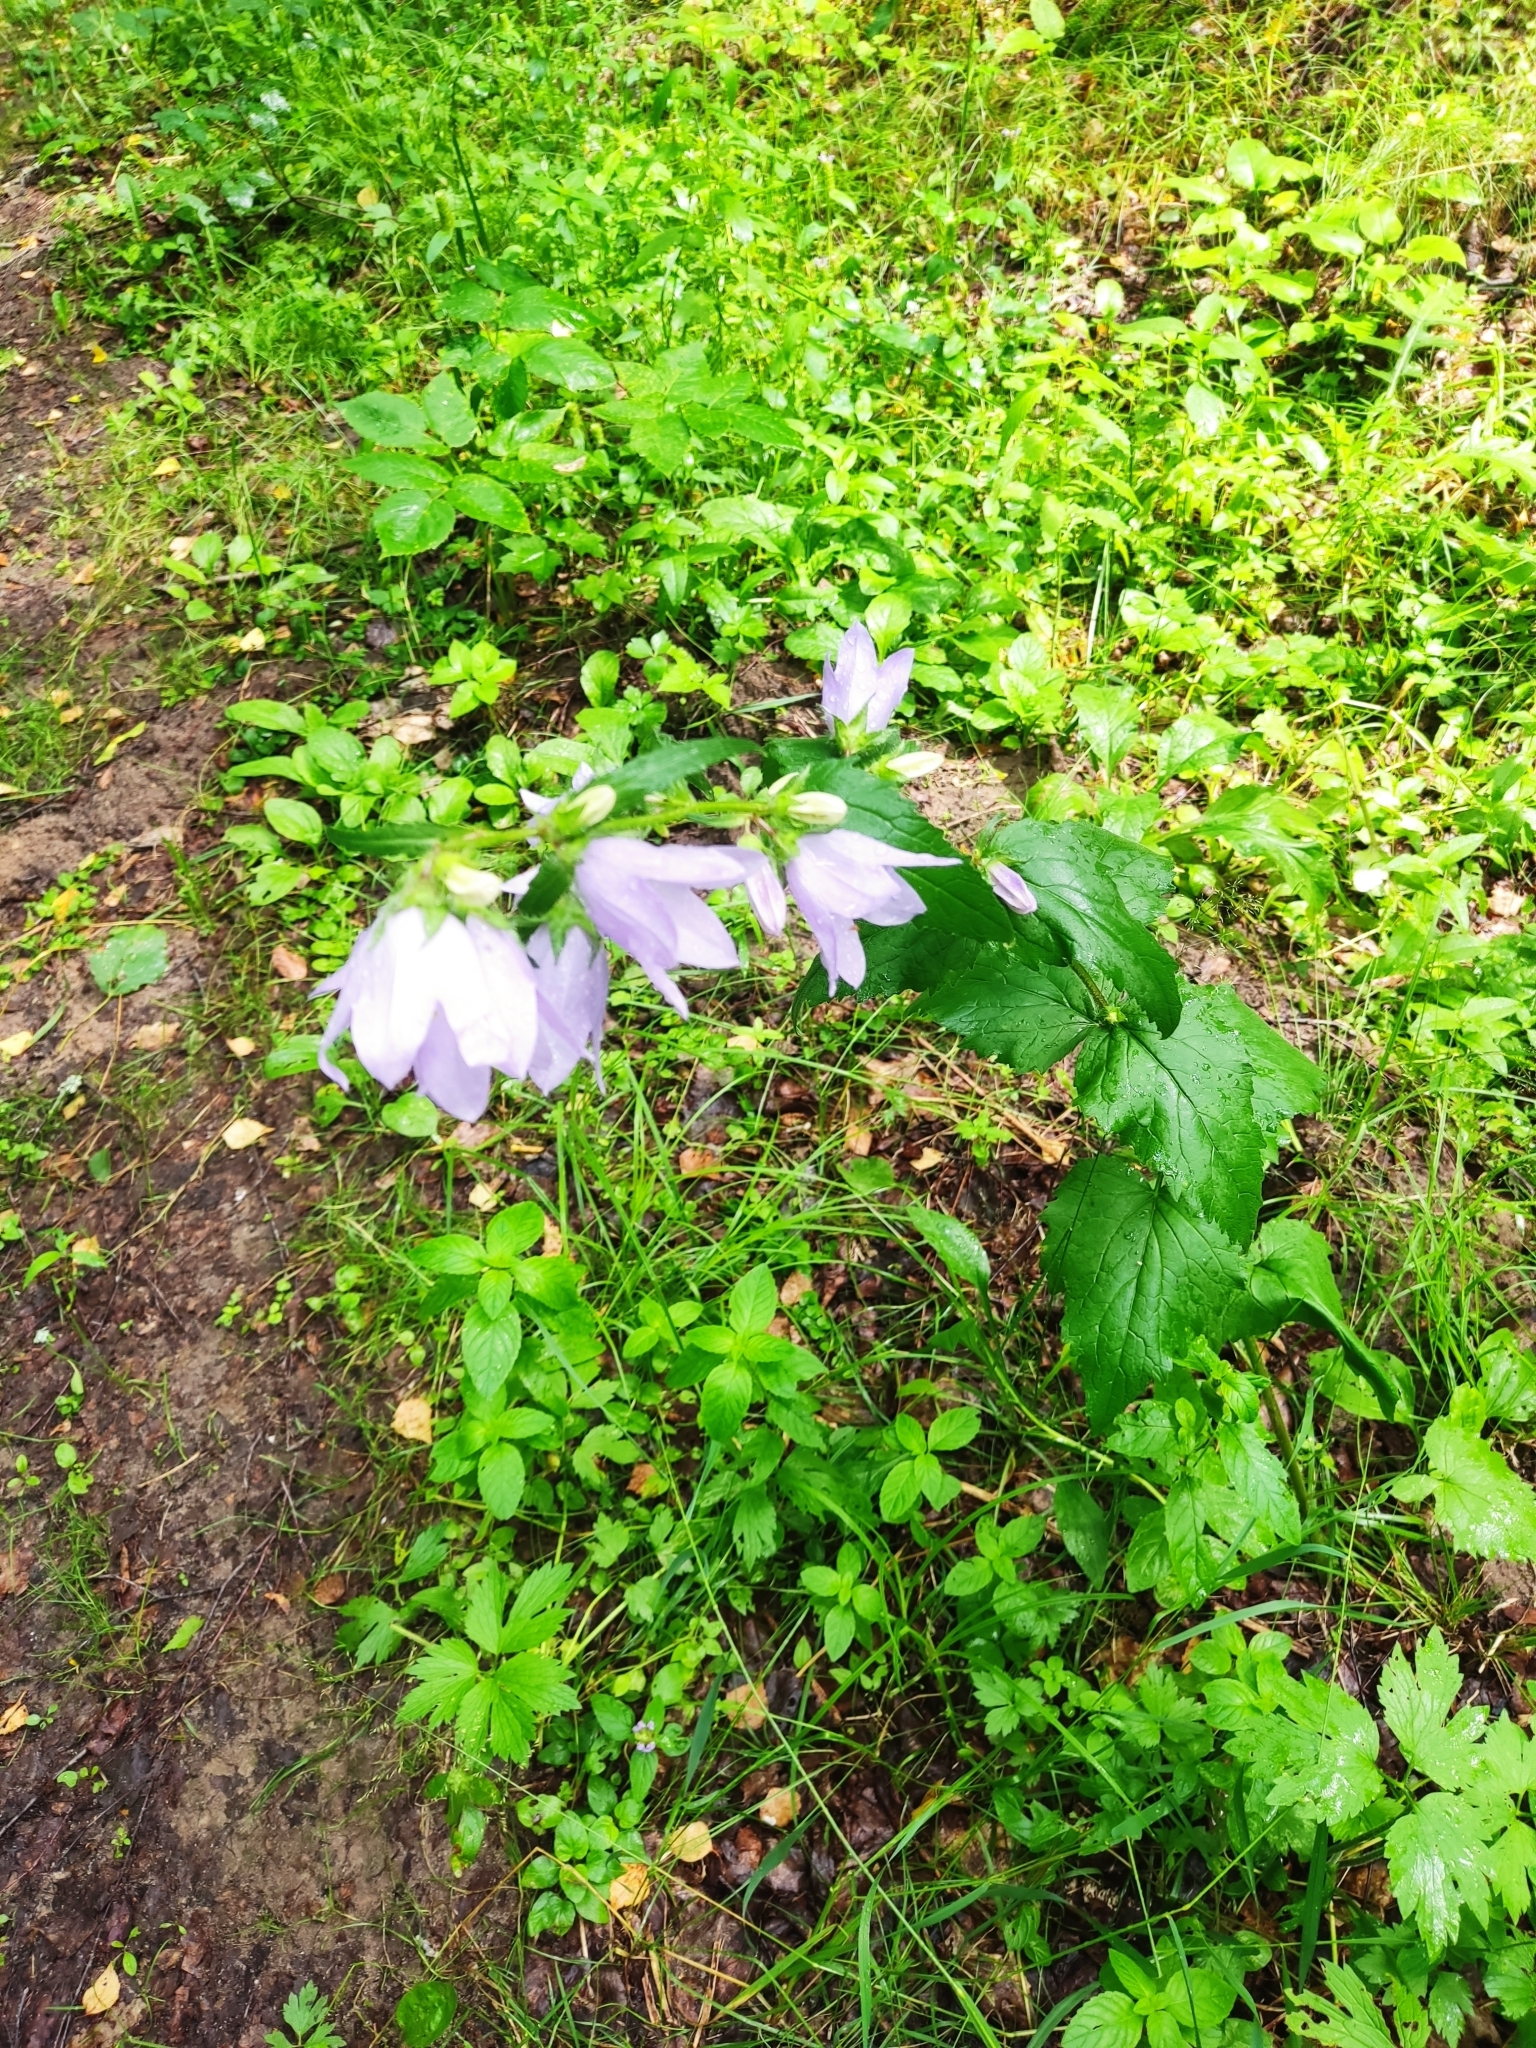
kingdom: Plantae
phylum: Tracheophyta
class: Magnoliopsida
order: Asterales
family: Campanulaceae
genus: Campanula
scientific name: Campanula trachelium
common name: Nettle-leaved bellflower
